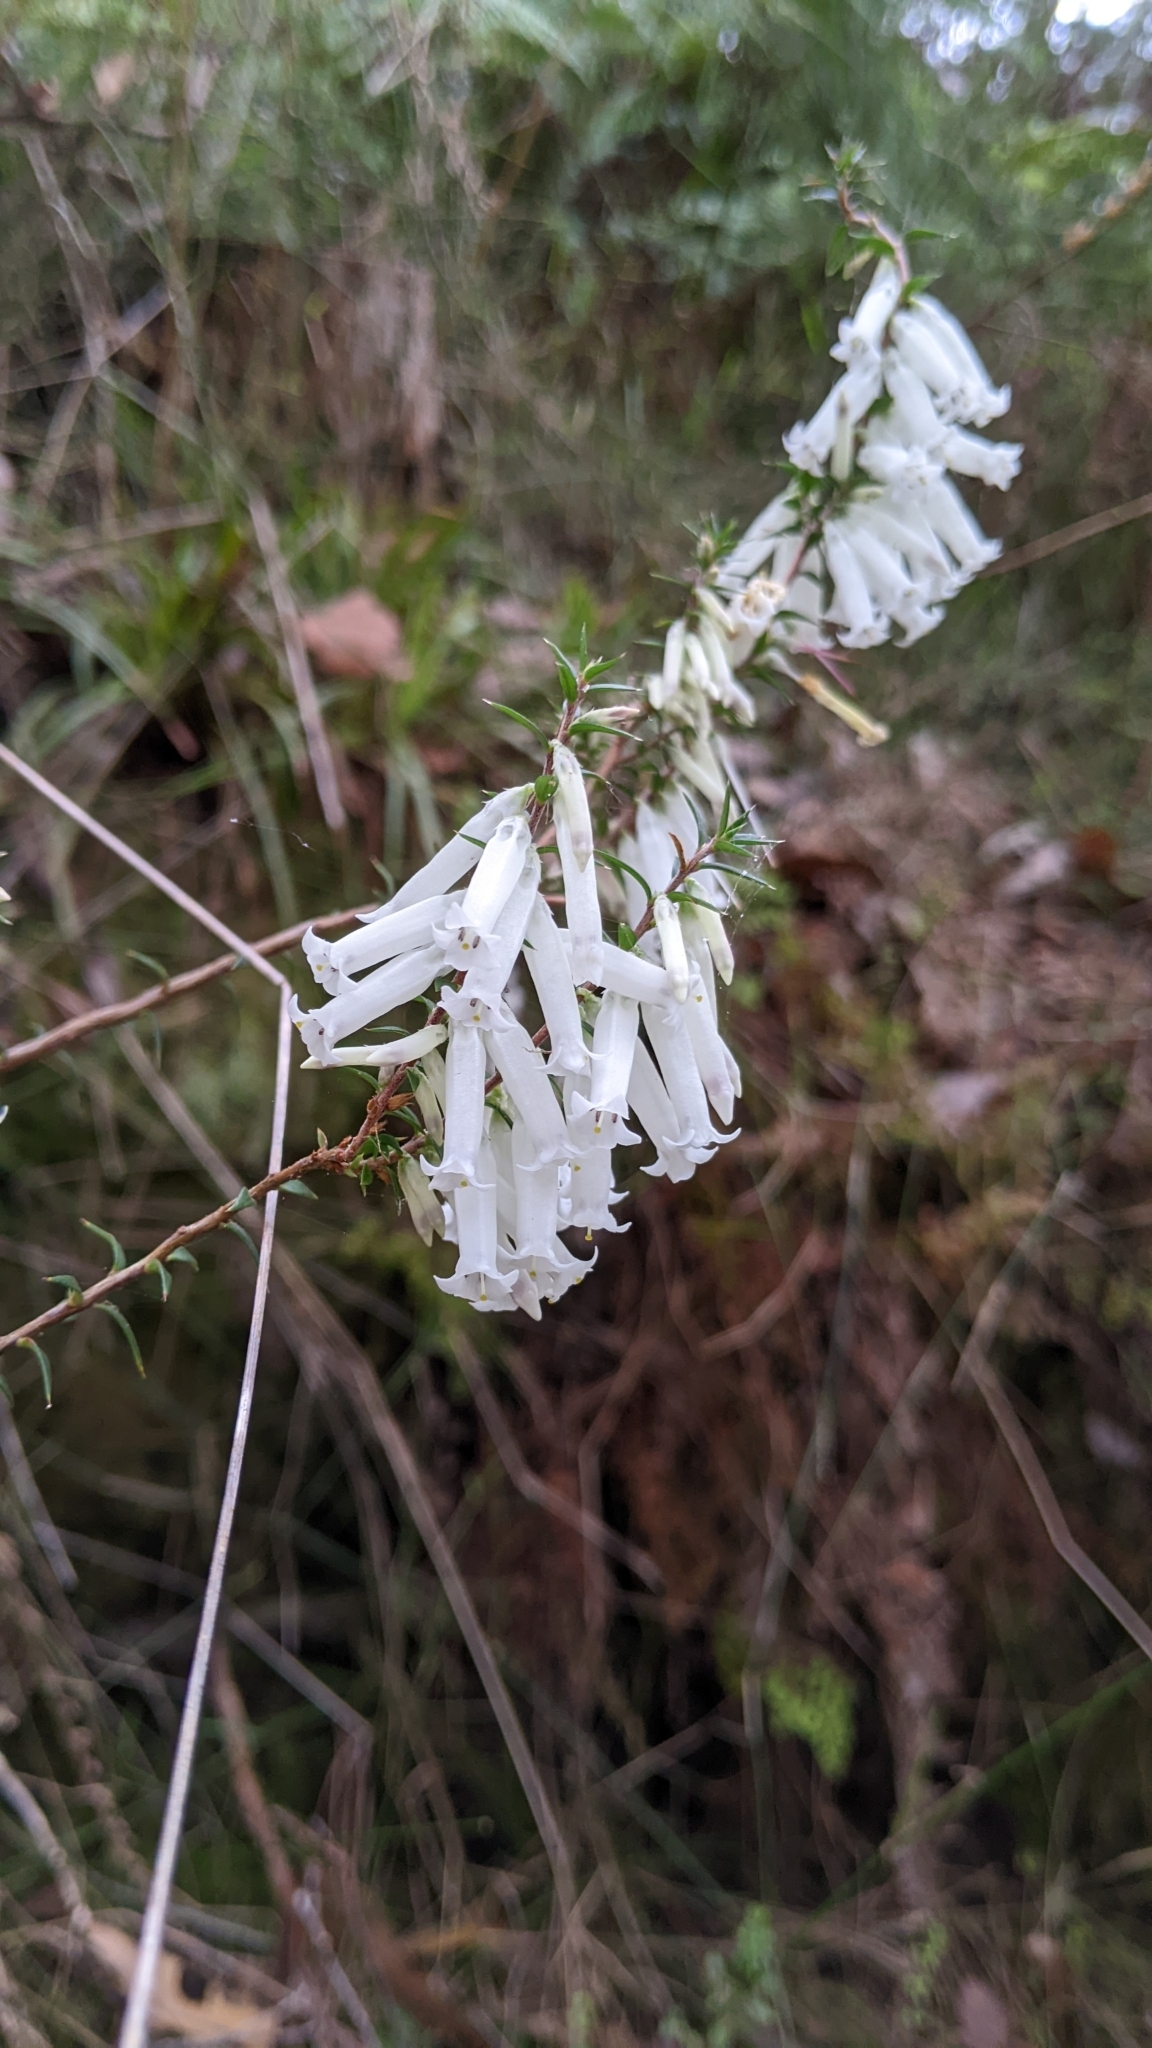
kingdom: Plantae
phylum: Tracheophyta
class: Magnoliopsida
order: Ericales
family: Ericaceae
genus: Epacris
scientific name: Epacris impressa
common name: Common-heath
